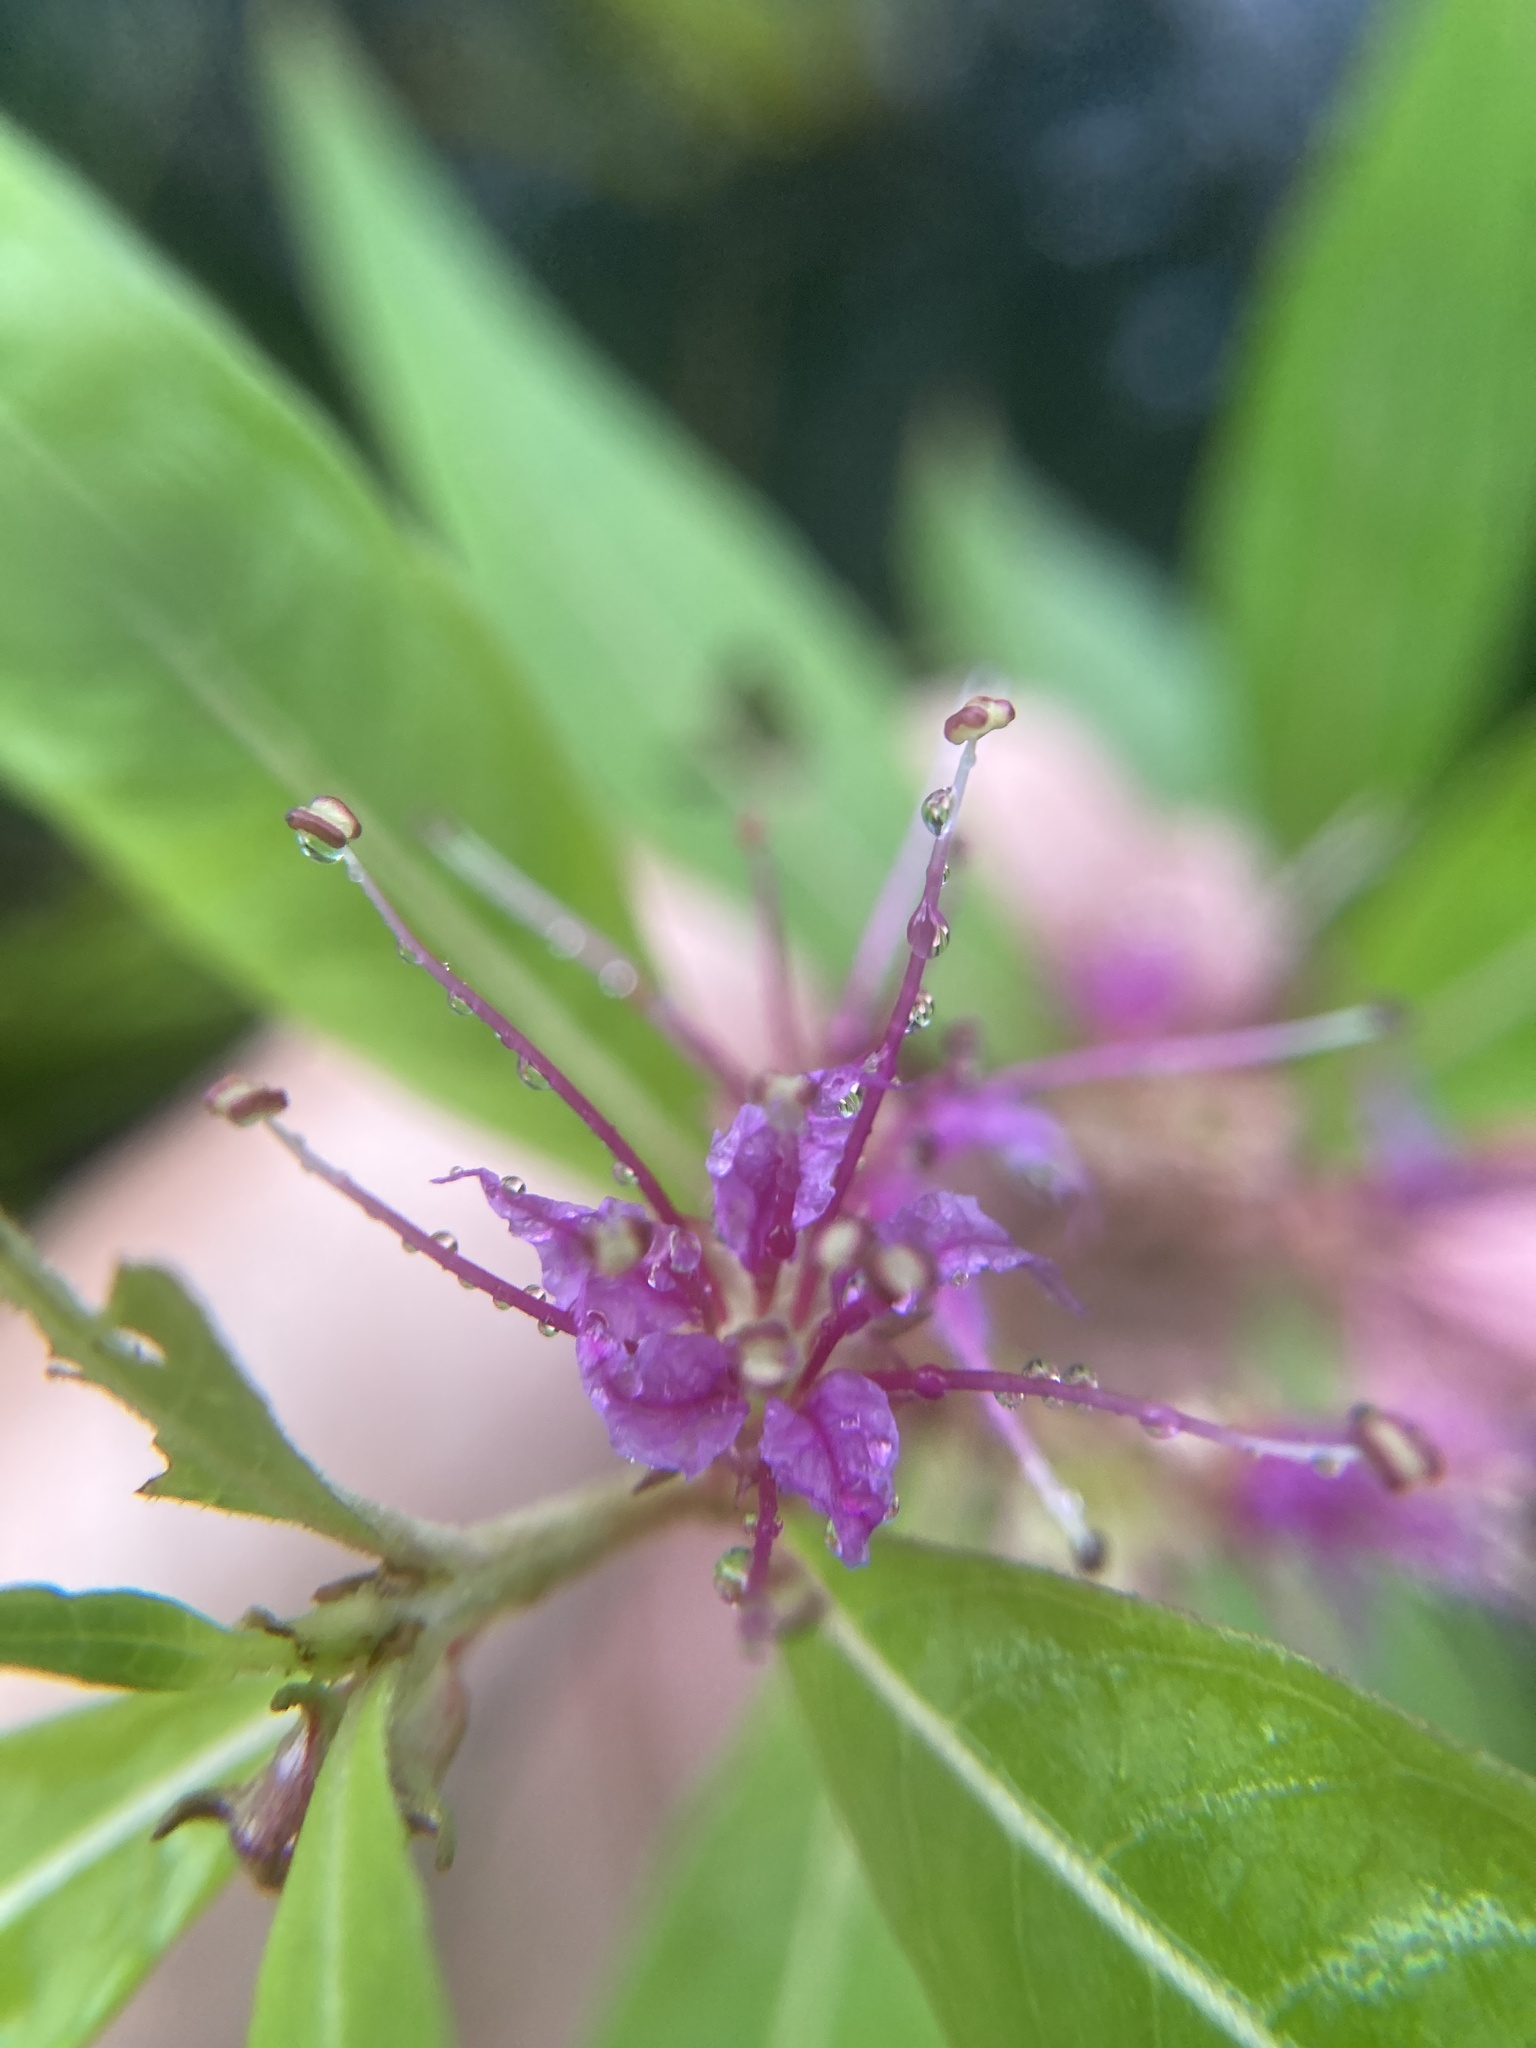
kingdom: Plantae
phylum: Tracheophyta
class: Magnoliopsida
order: Myrtales
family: Lythraceae
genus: Decodon
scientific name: Decodon verticillatus
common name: Hairy swamp loosestrife
